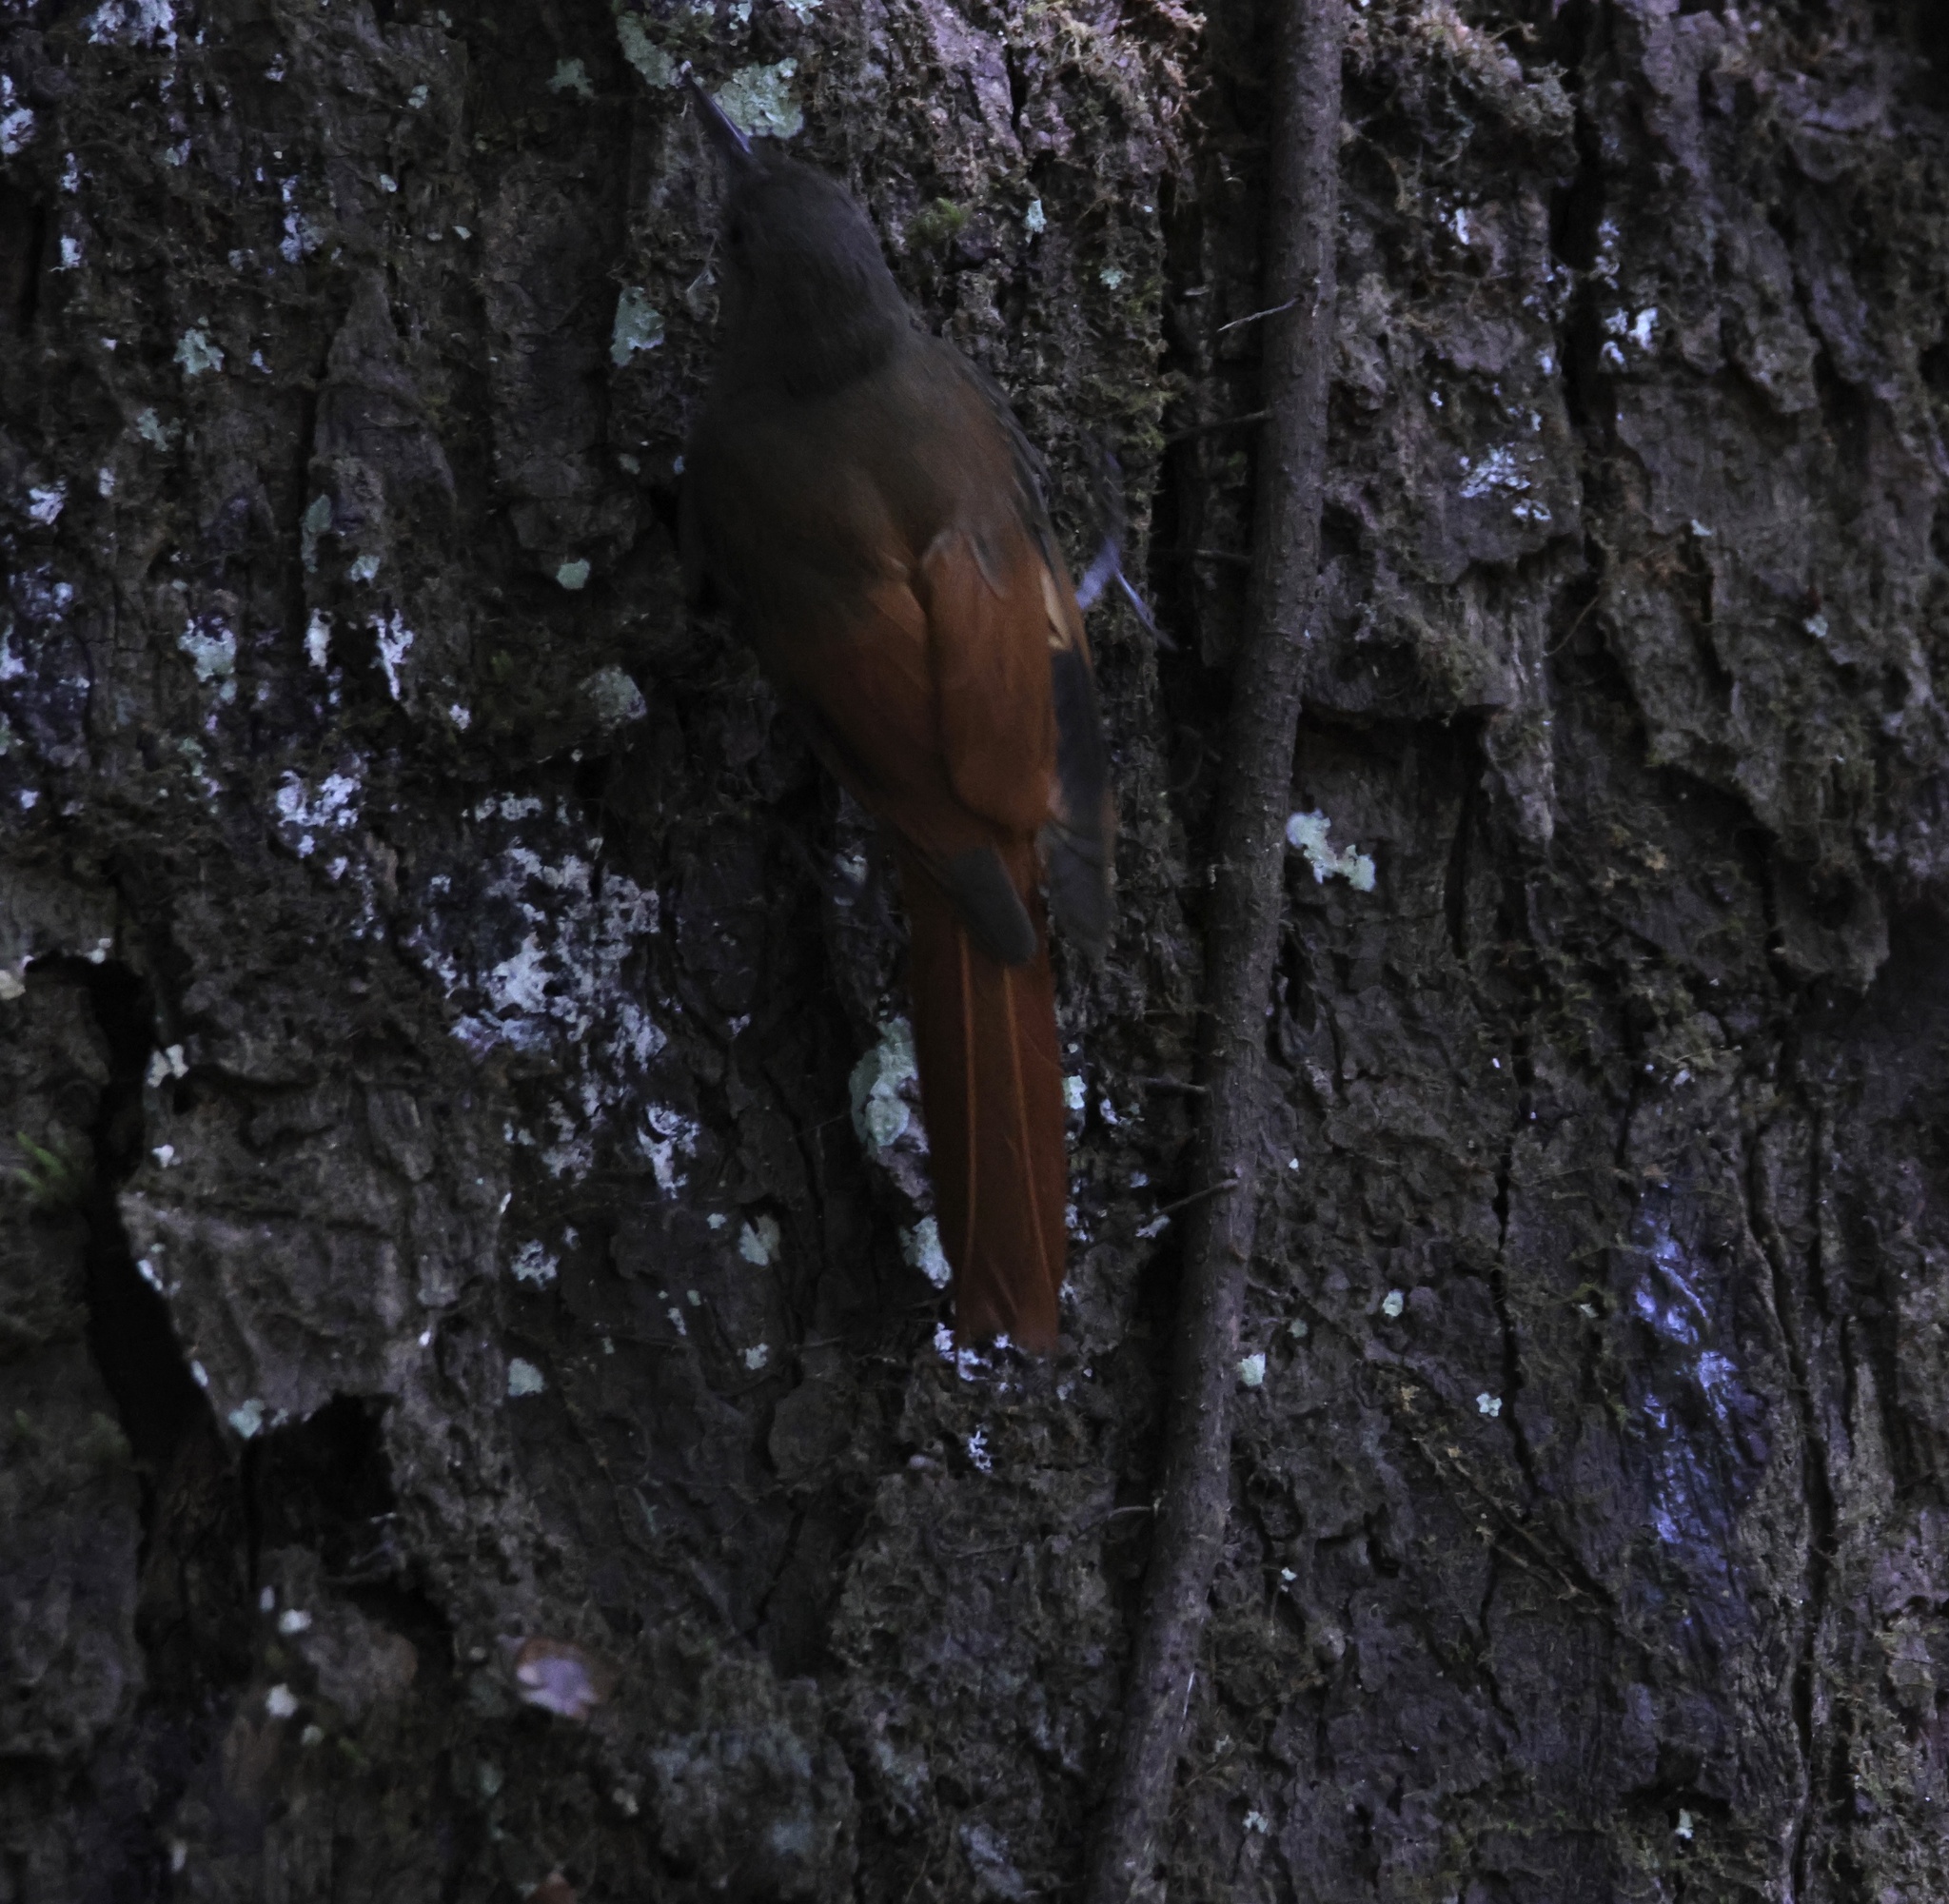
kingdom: Animalia
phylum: Chordata
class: Aves
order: Passeriformes
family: Furnariidae
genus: Sittasomus
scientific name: Sittasomus griseicapillus
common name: Olivaceous woodcreeper
